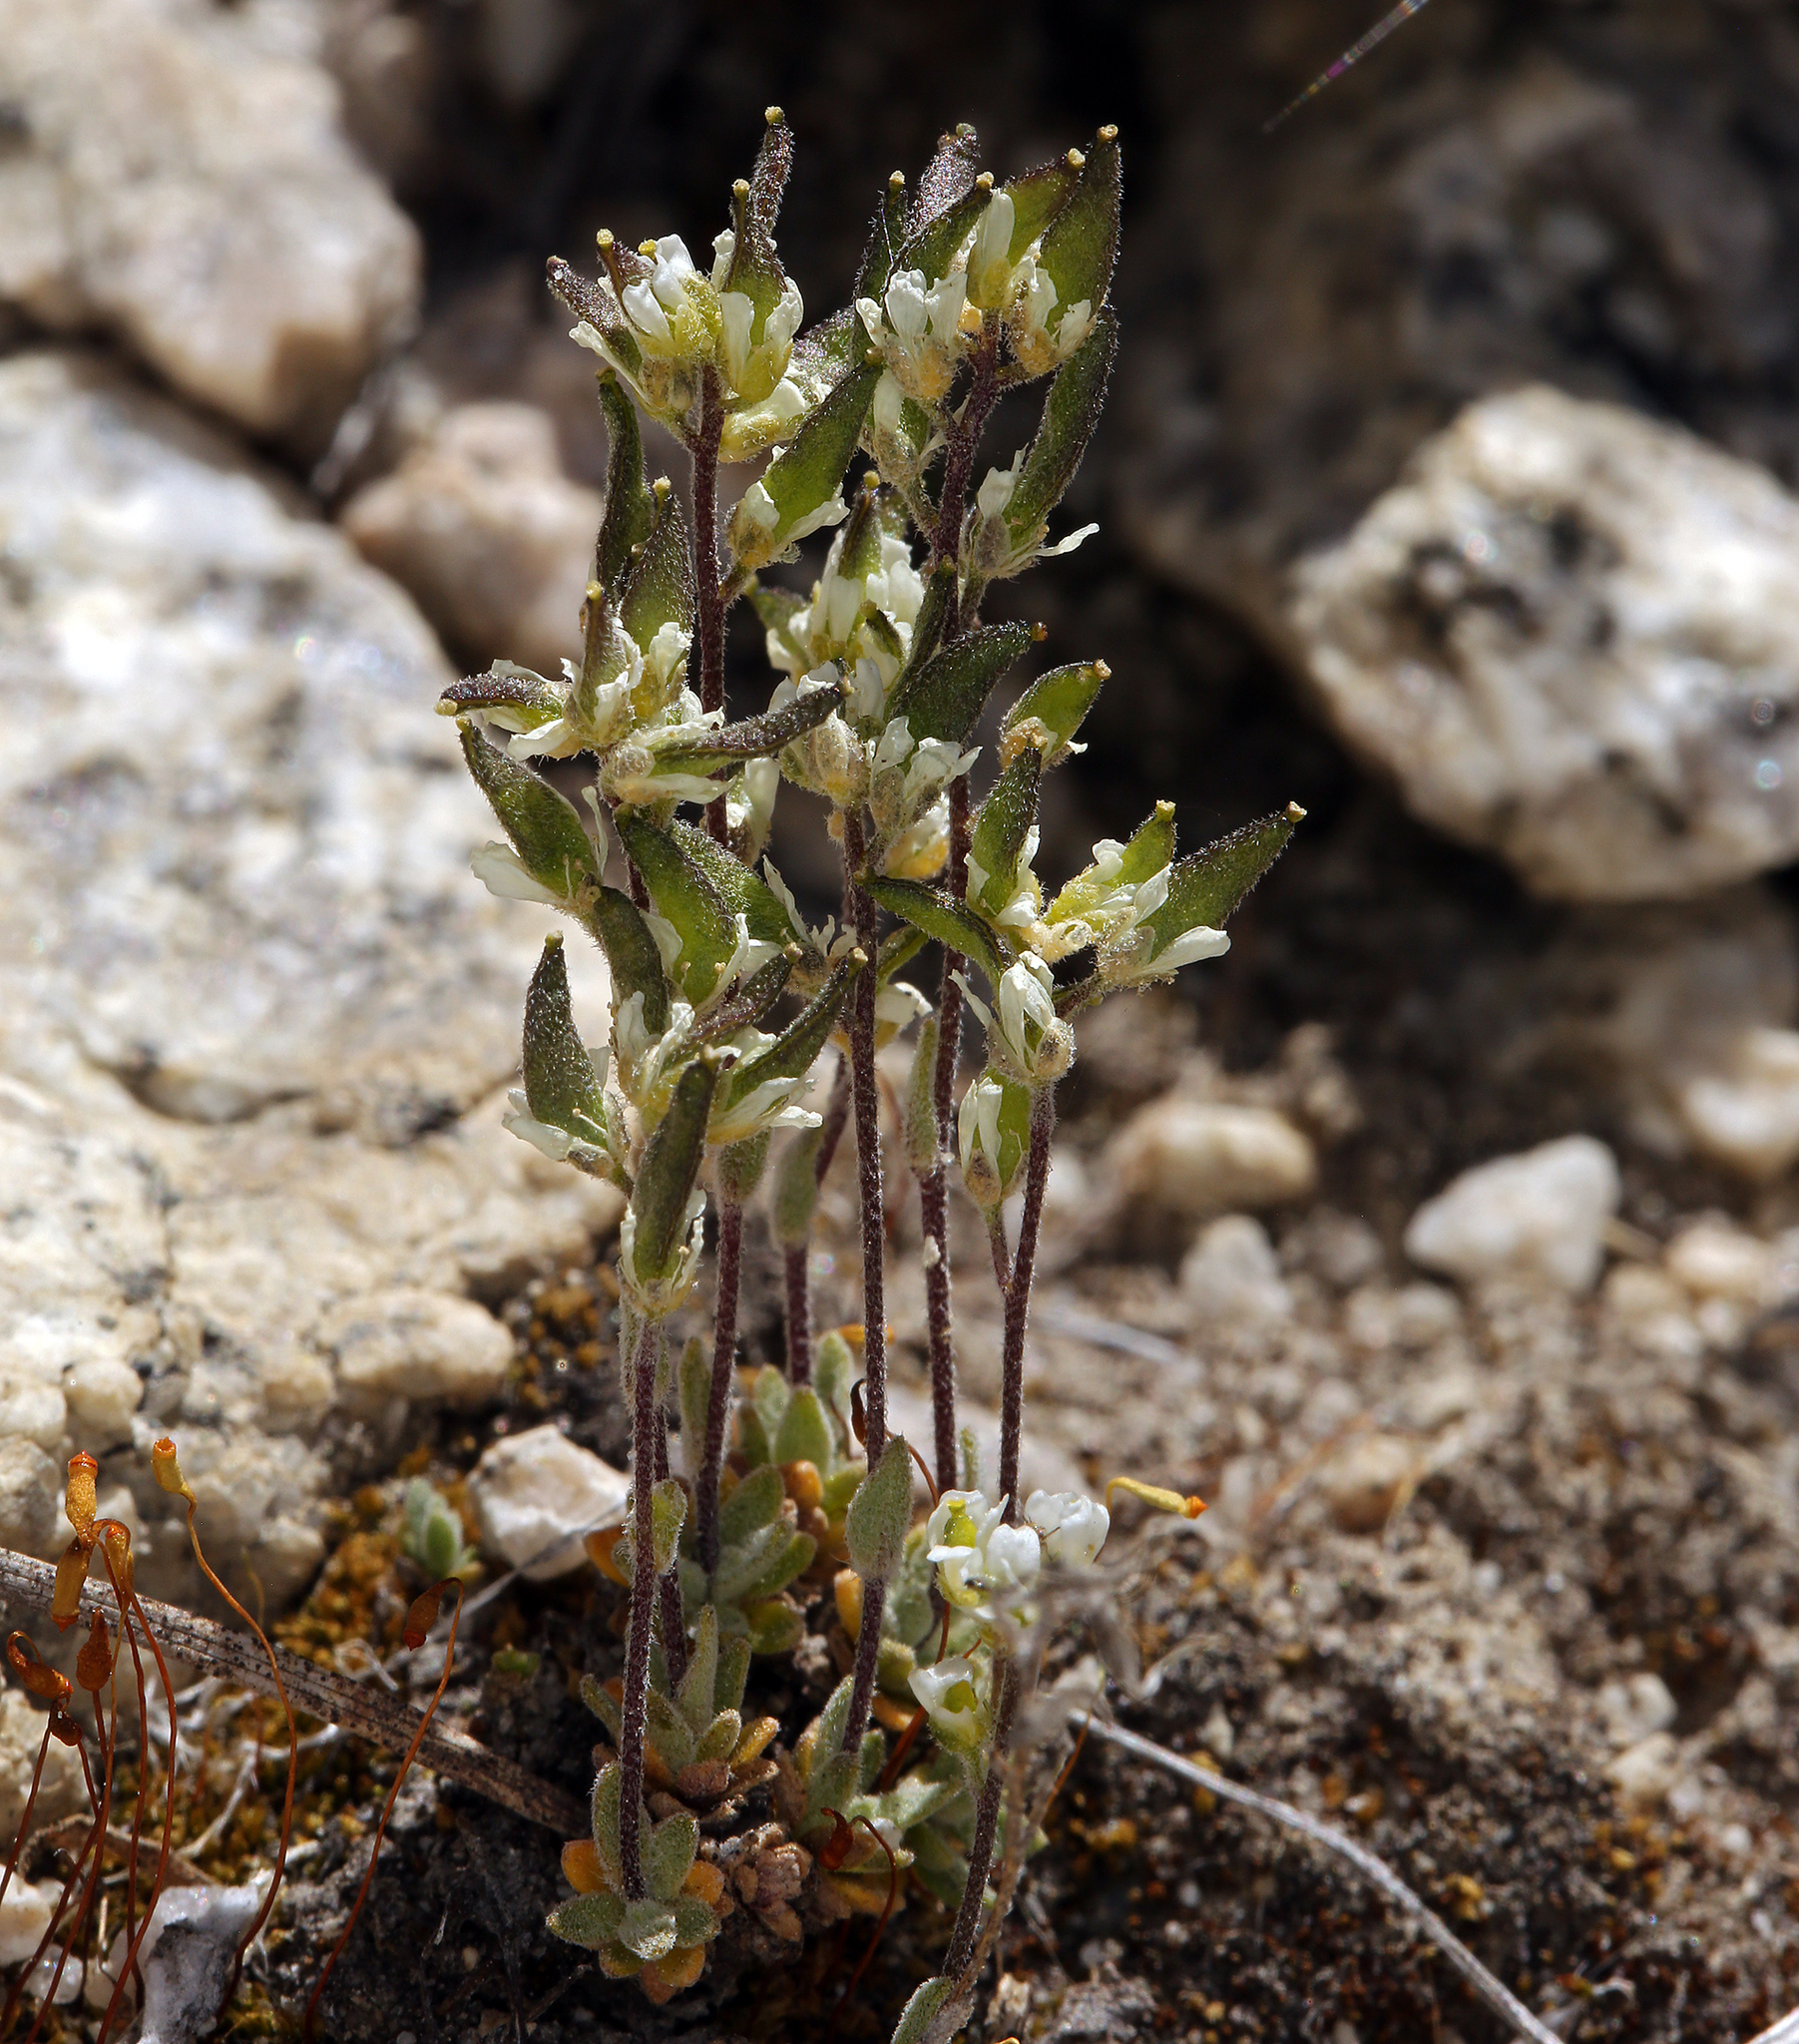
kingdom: Plantae
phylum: Tracheophyta
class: Magnoliopsida
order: Brassicales
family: Brassicaceae
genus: Draba
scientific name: Draba breweri
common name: Cushion draba
